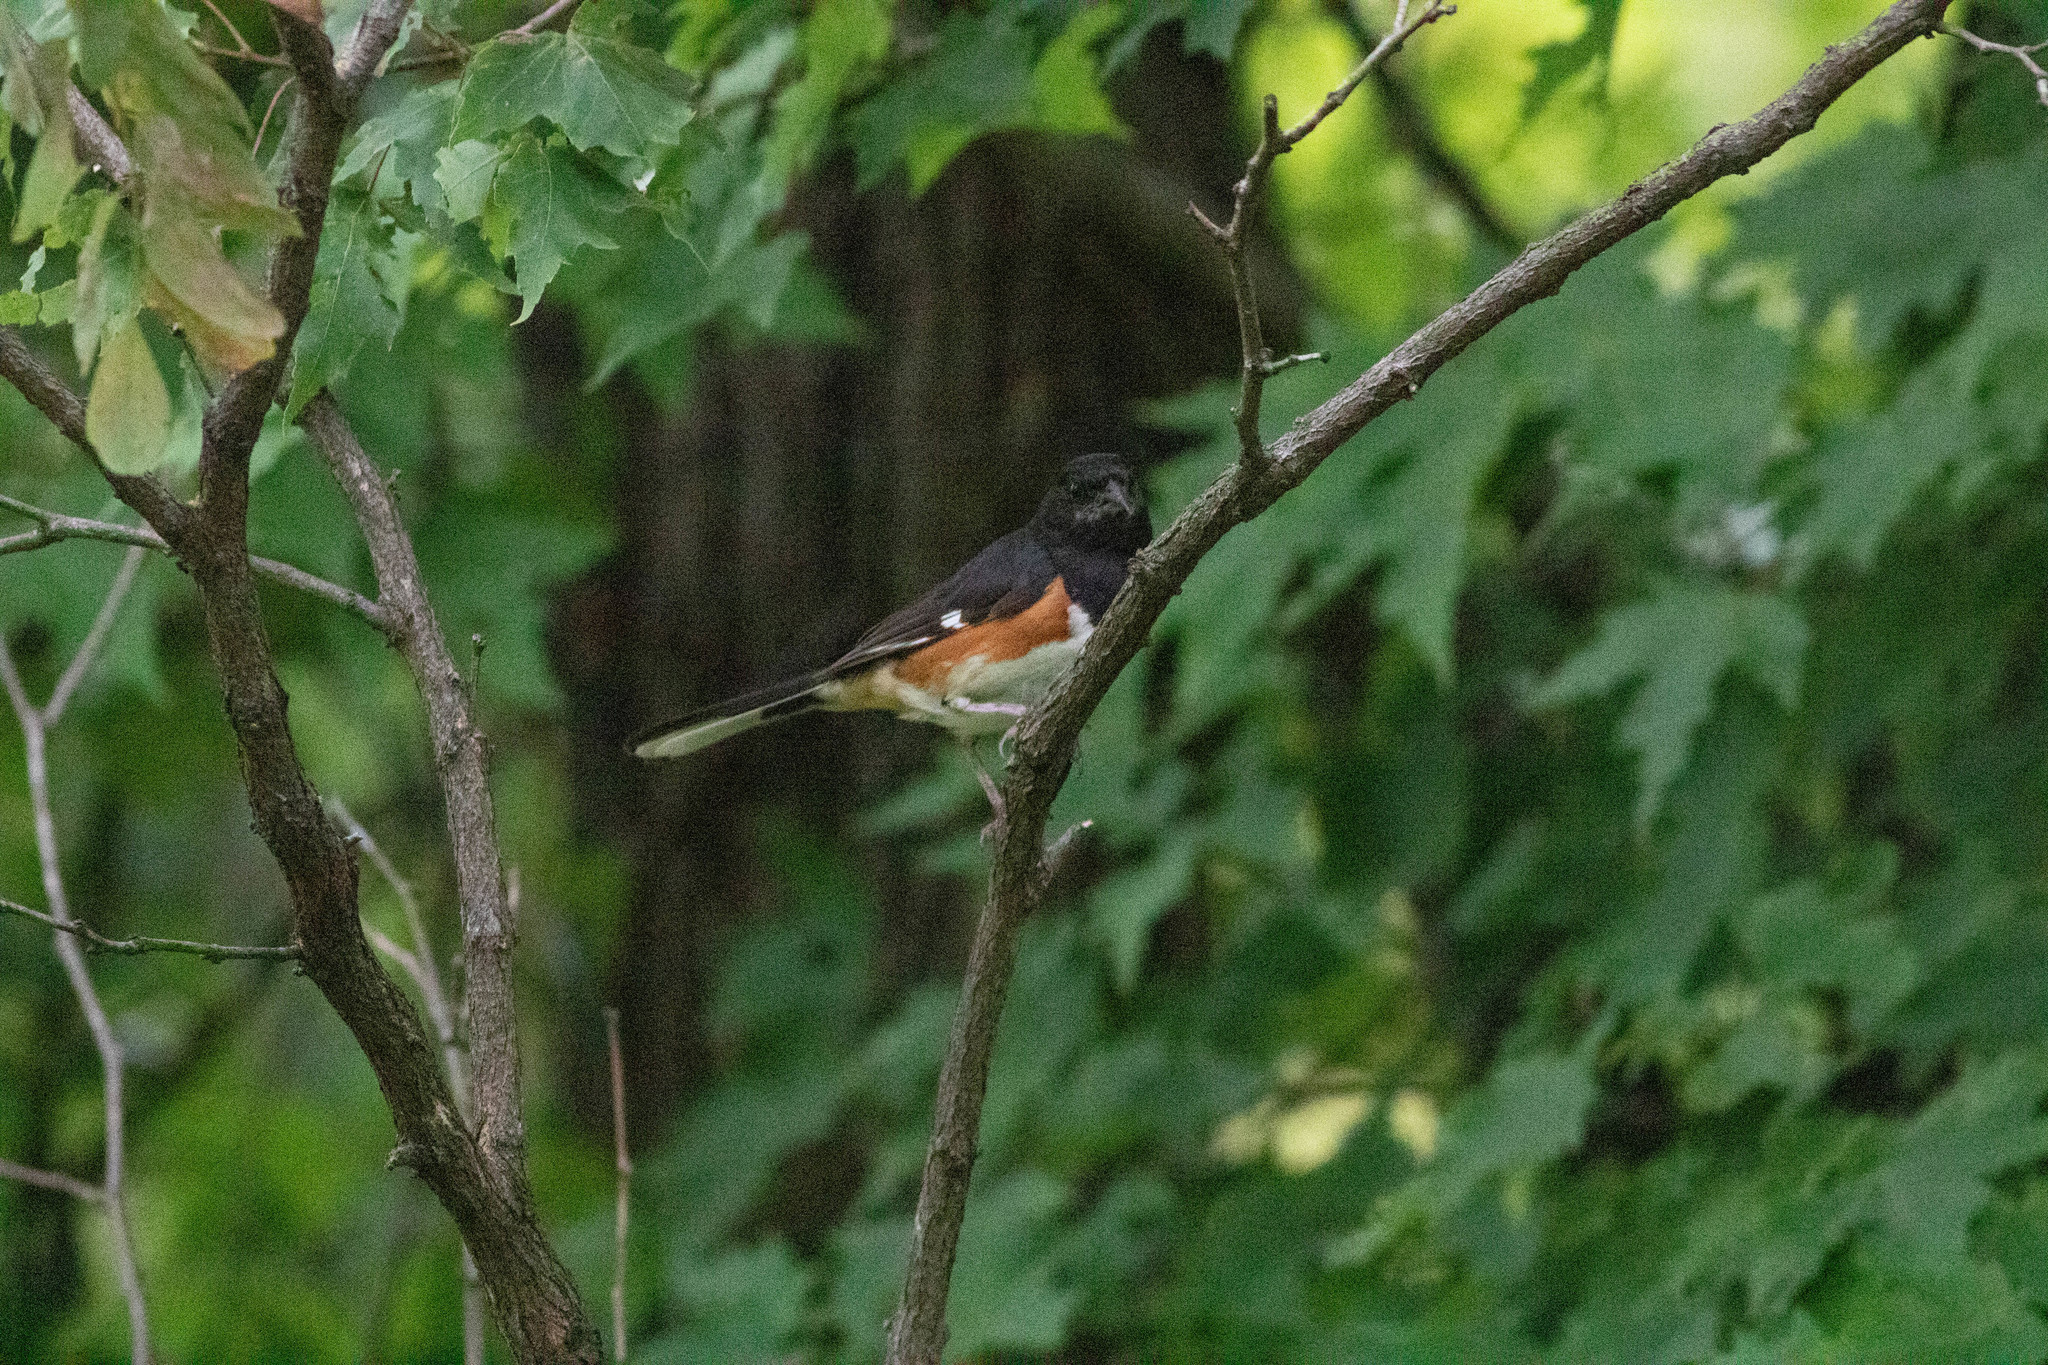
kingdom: Animalia
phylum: Chordata
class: Aves
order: Passeriformes
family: Passerellidae
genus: Pipilo
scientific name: Pipilo erythrophthalmus
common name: Eastern towhee
